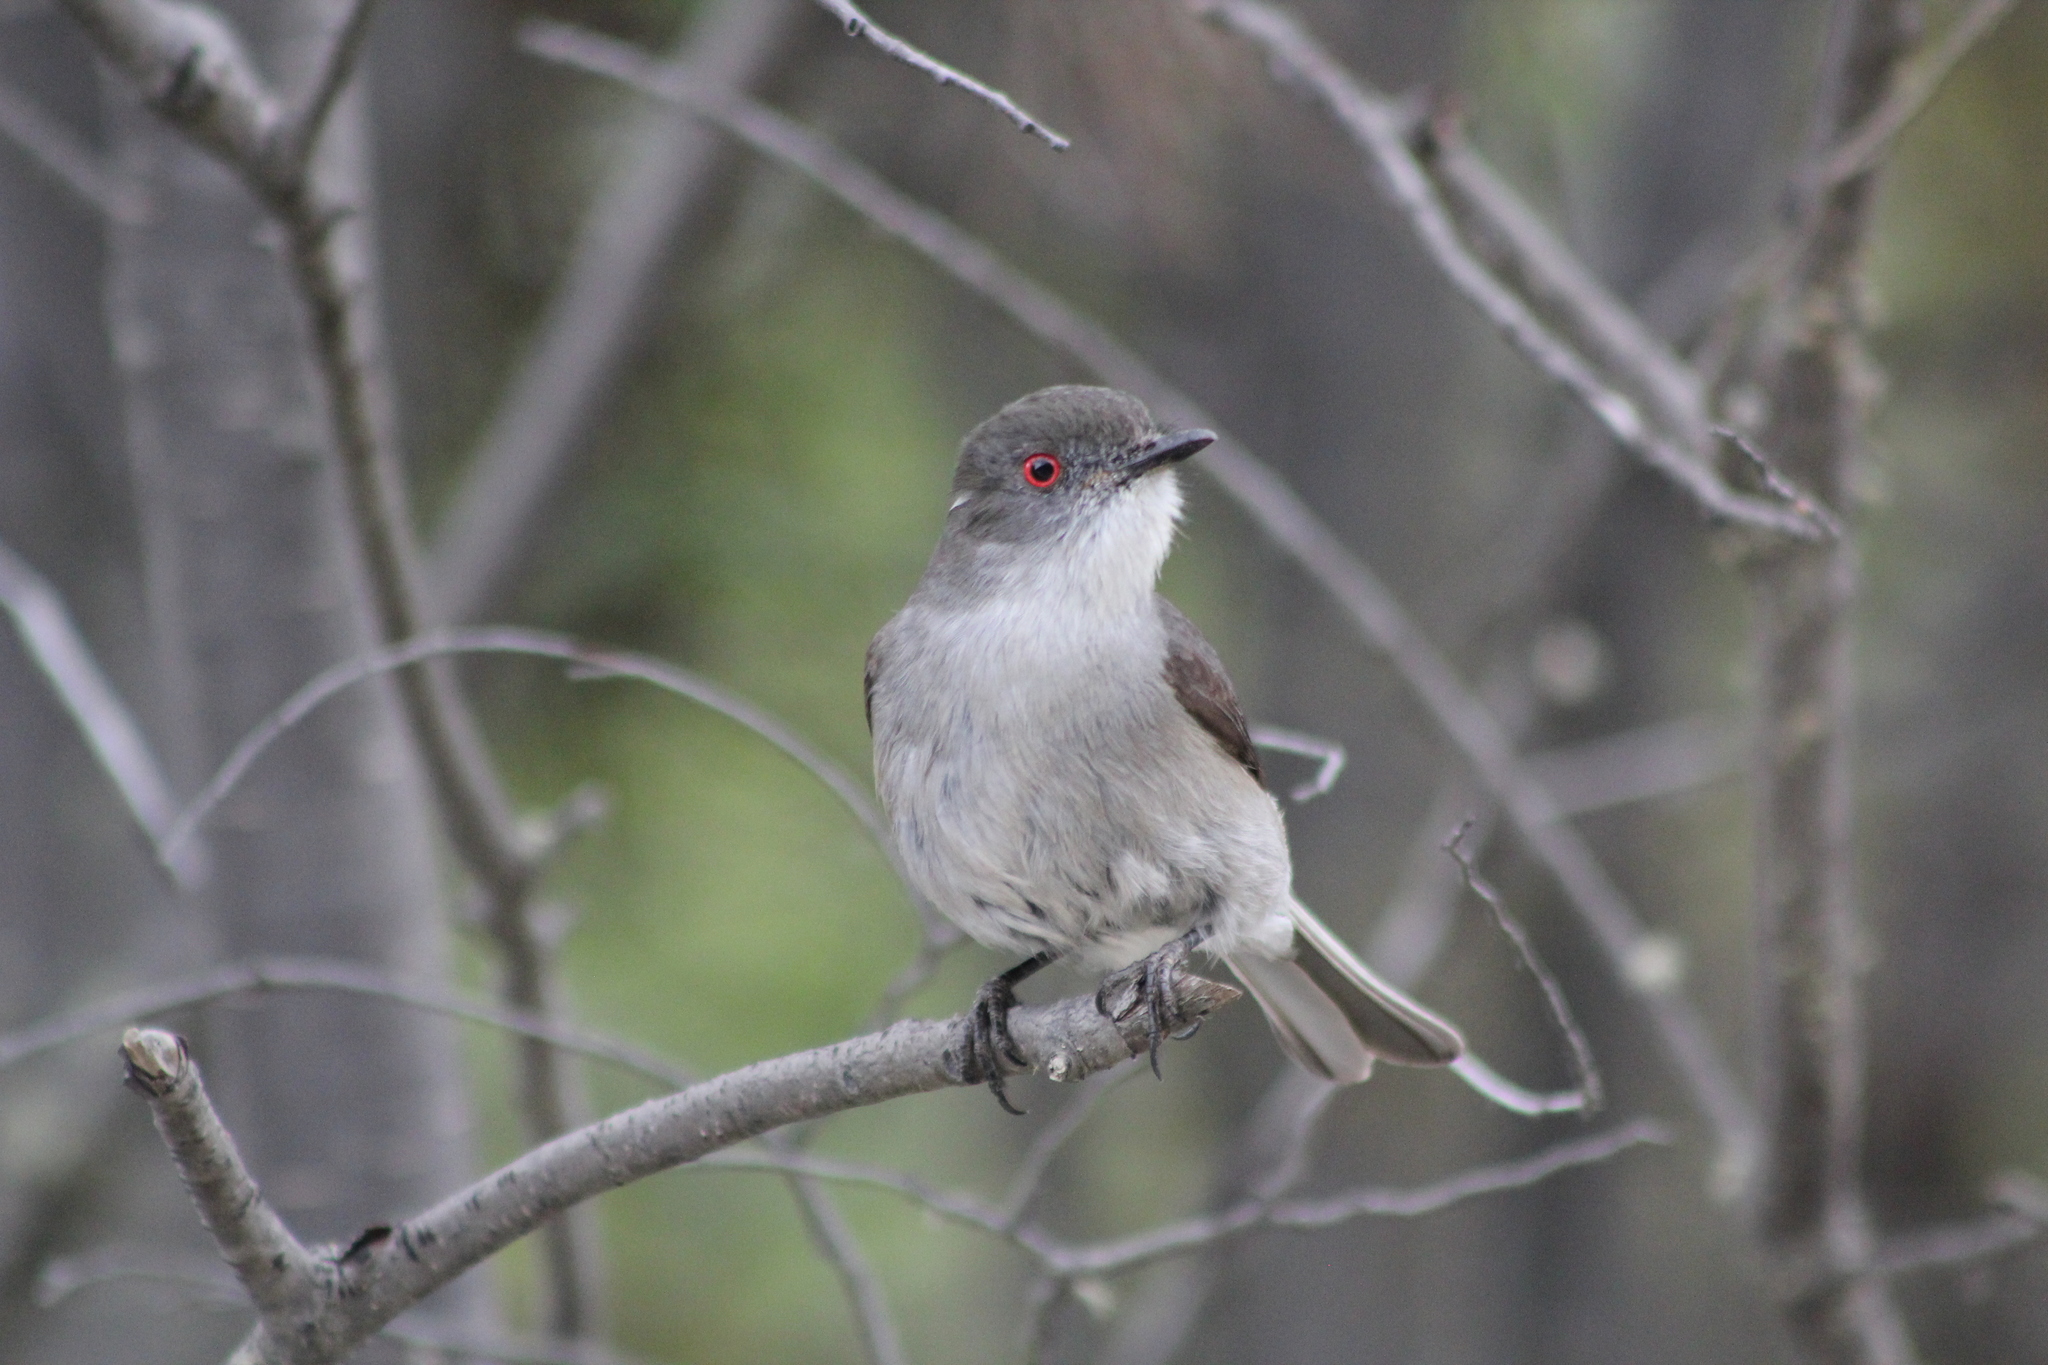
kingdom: Animalia
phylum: Chordata
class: Aves
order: Passeriformes
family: Tyrannidae
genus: Xolmis
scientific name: Xolmis pyrope
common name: Fire-eyed diucon
